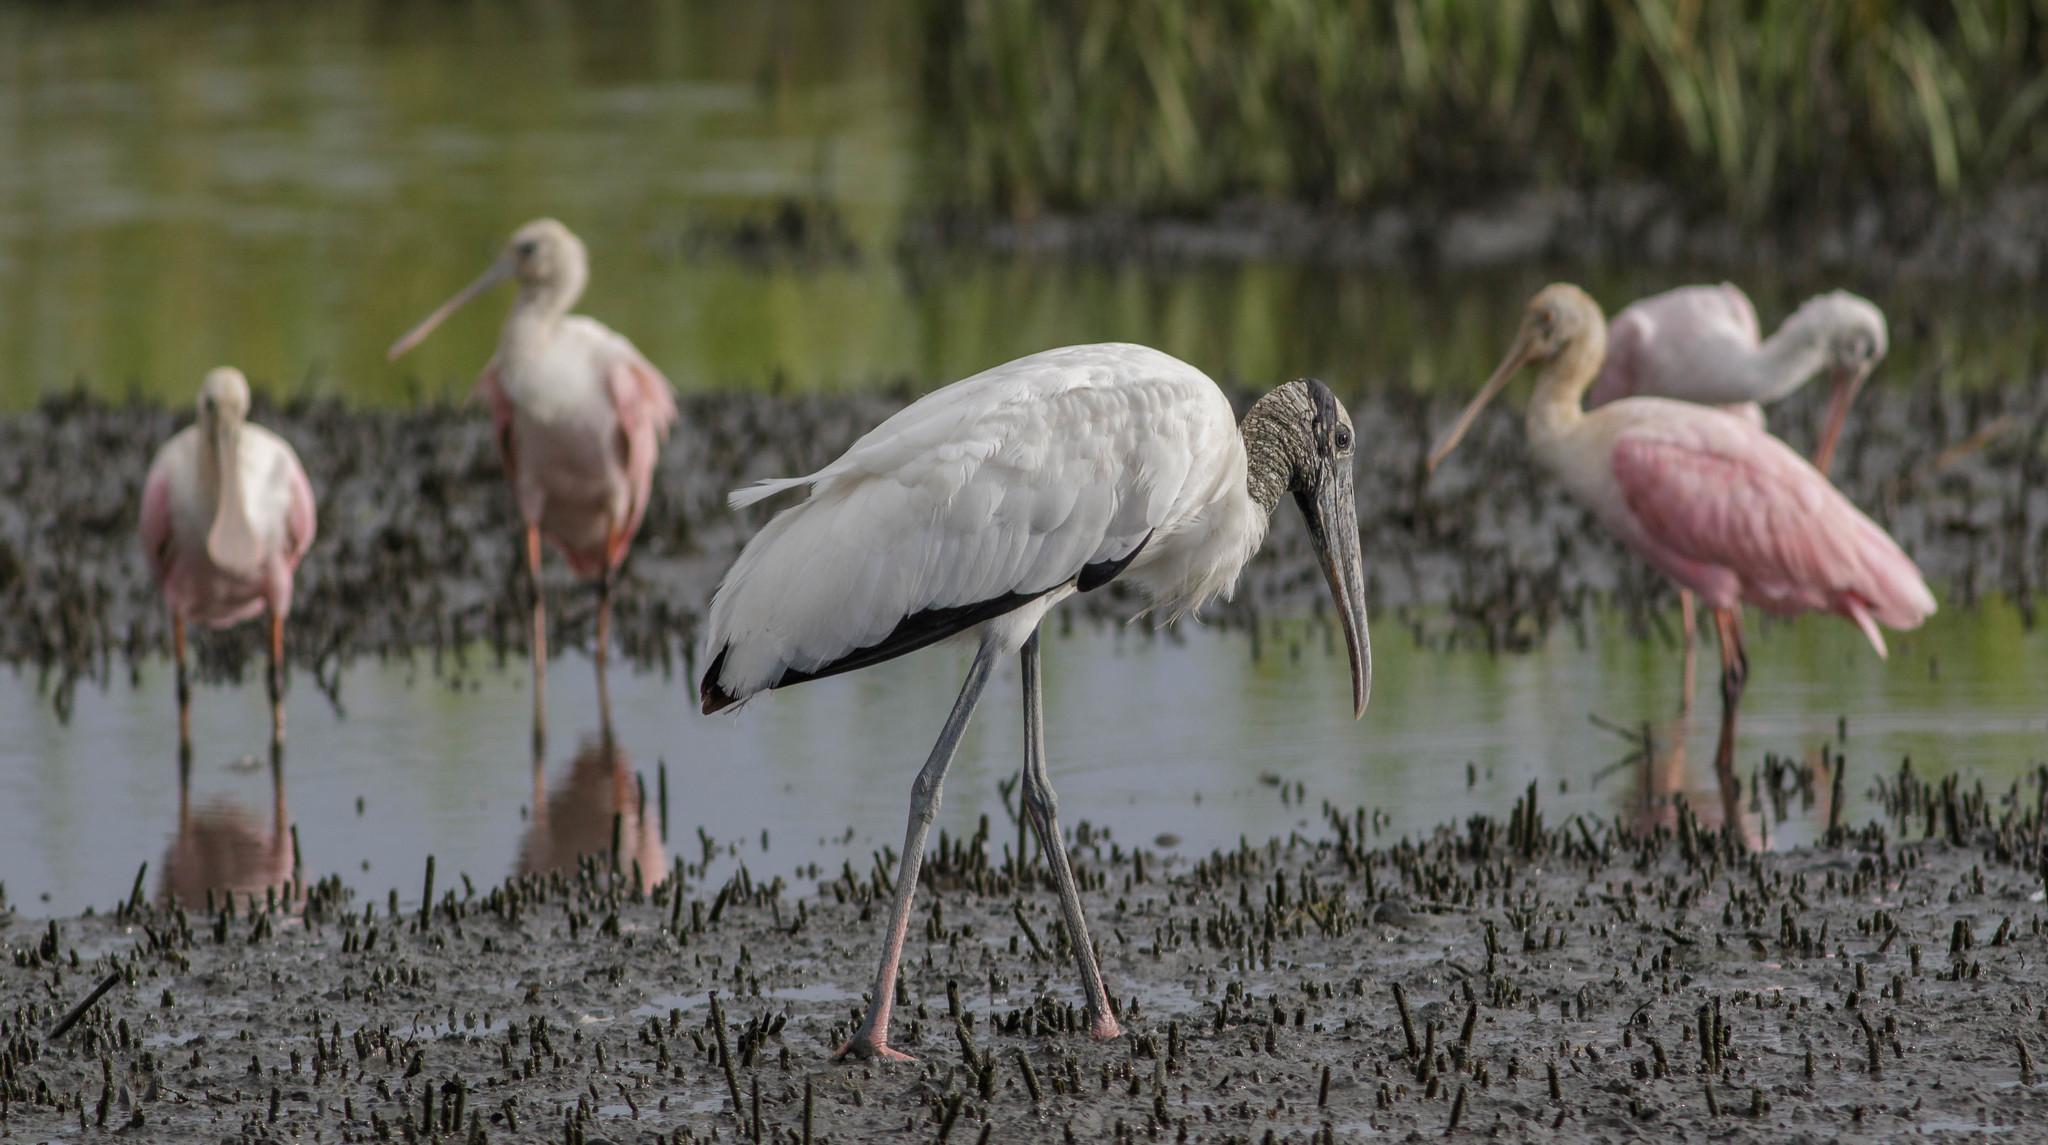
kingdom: Animalia
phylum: Chordata
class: Aves
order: Ciconiiformes
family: Ciconiidae
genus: Mycteria
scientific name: Mycteria americana
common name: Wood stork
